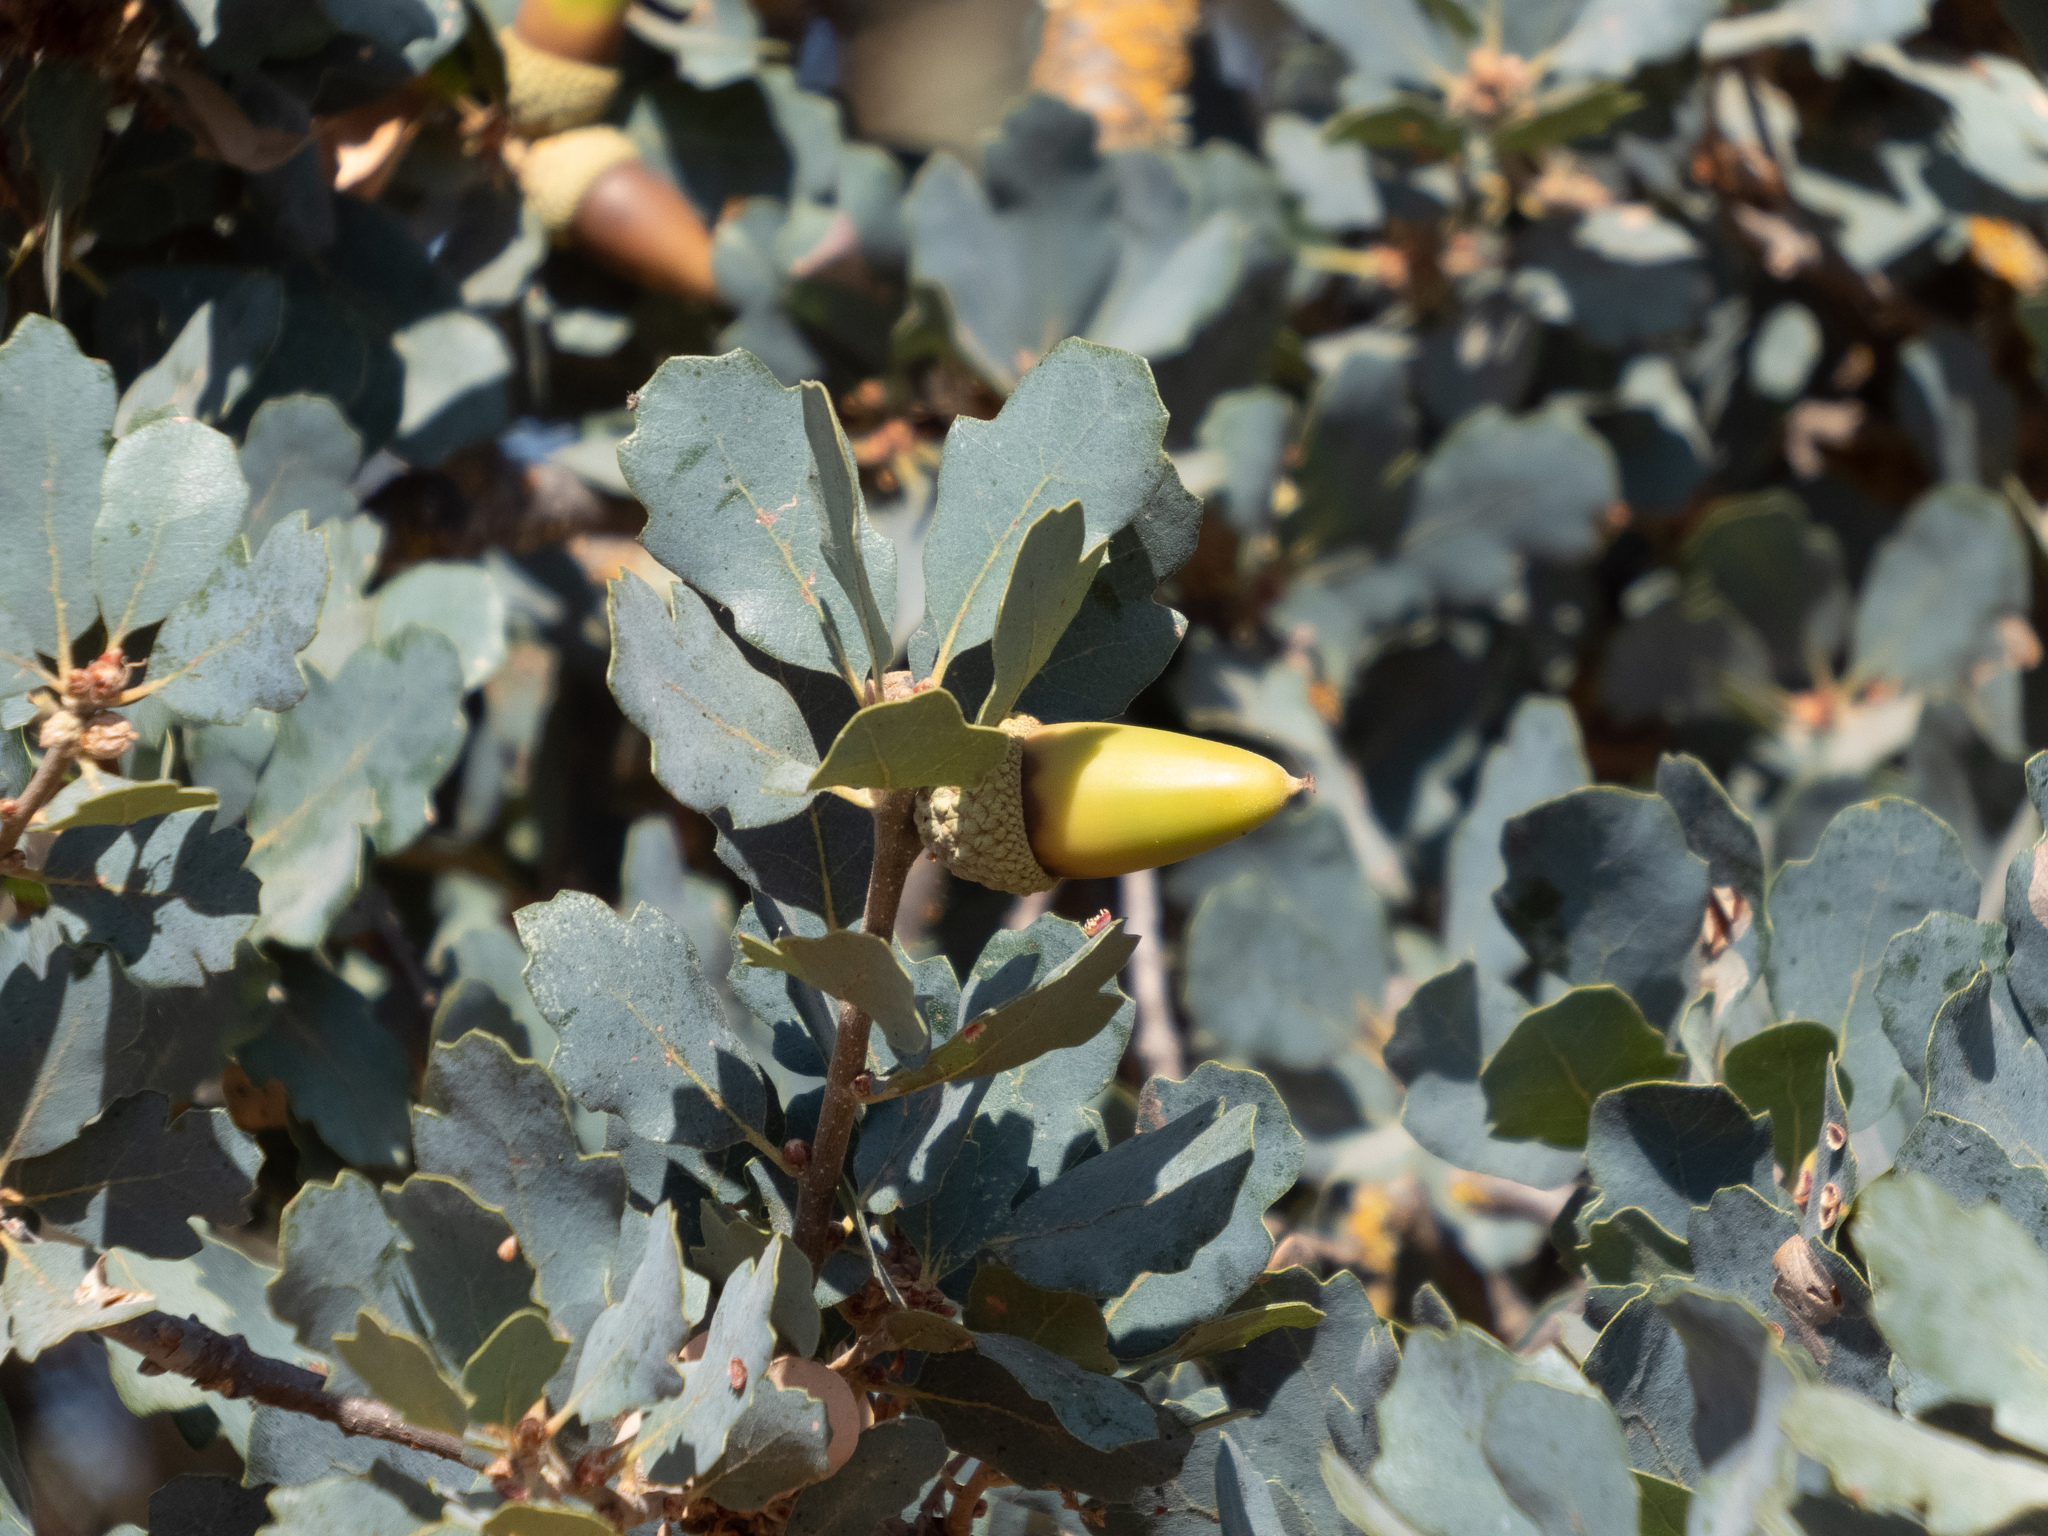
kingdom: Plantae
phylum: Tracheophyta
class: Magnoliopsida
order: Fagales
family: Fagaceae
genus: Quercus
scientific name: Quercus douglasii
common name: Blue oak
